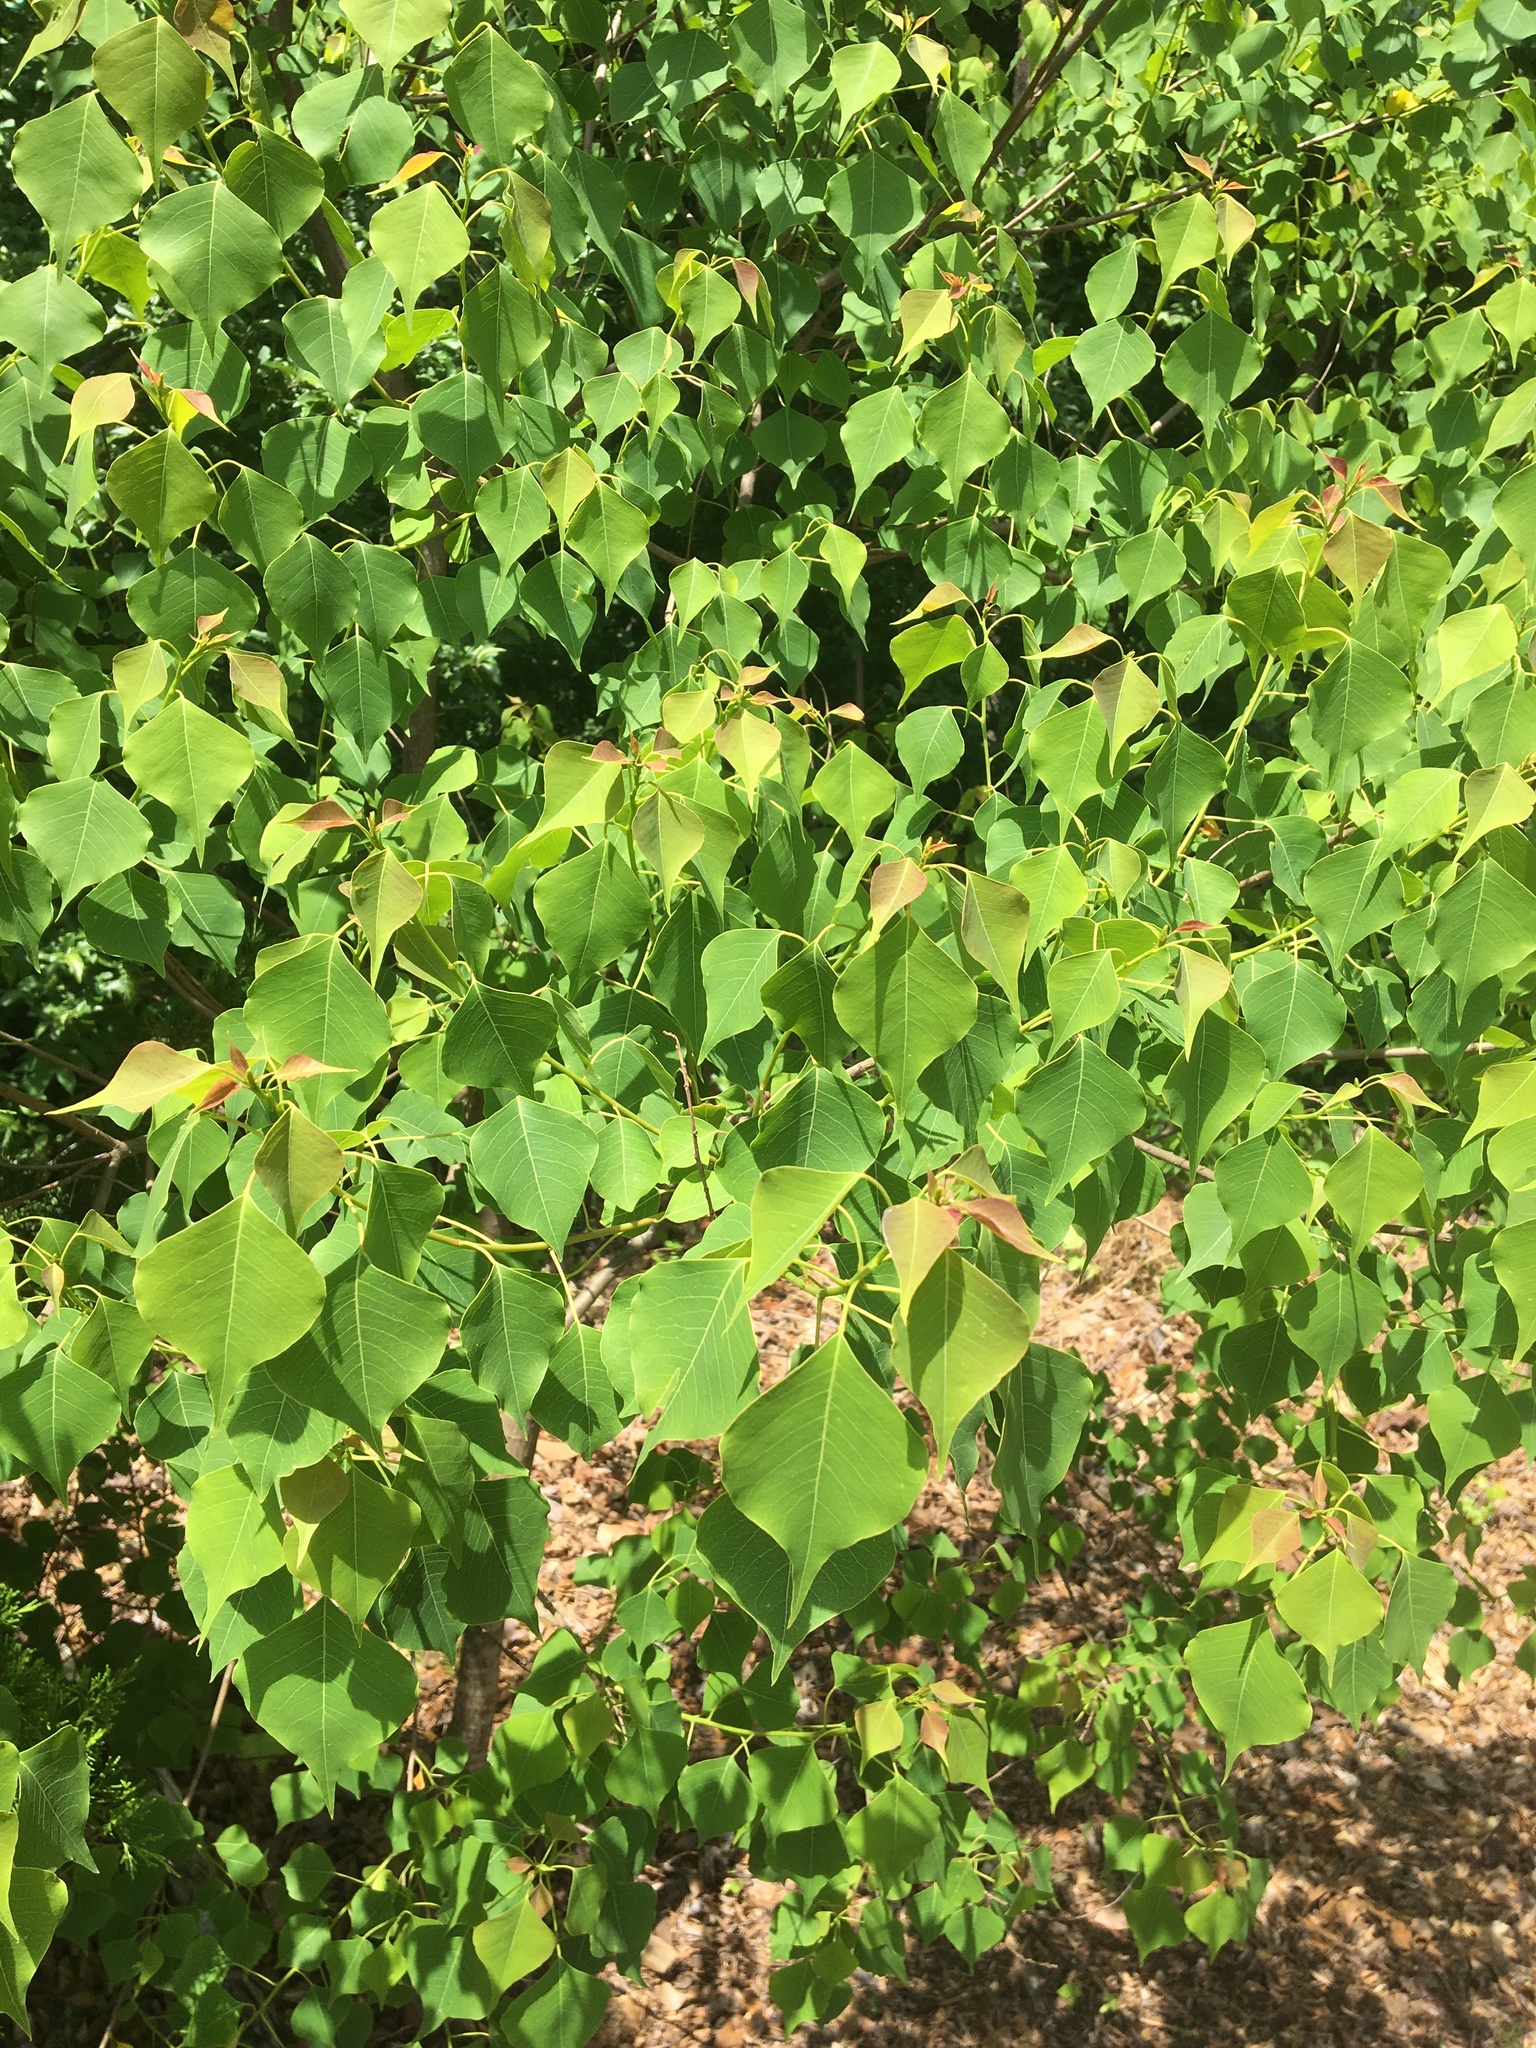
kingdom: Plantae
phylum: Tracheophyta
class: Magnoliopsida
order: Malpighiales
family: Euphorbiaceae
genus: Triadica
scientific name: Triadica sebifera
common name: Chinese tallow
